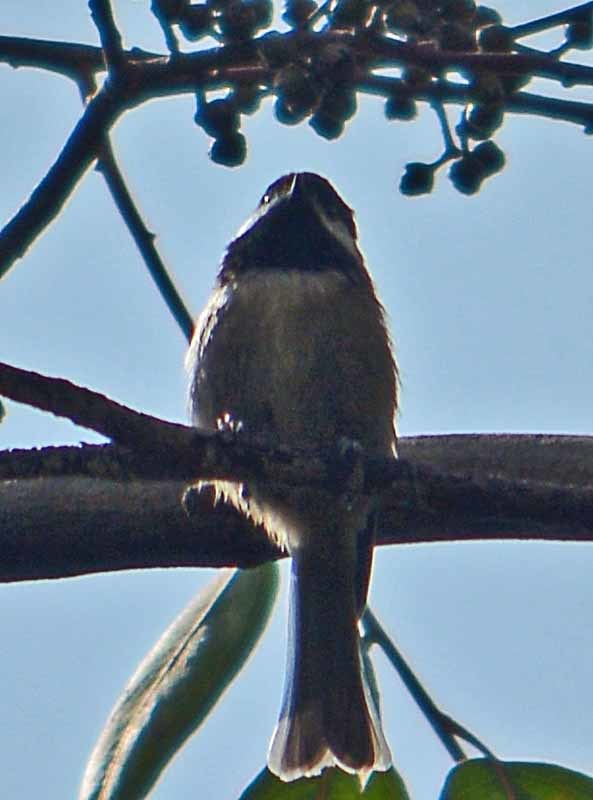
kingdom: Animalia
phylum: Chordata
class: Aves
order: Passeriformes
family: Paridae
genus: Poecile
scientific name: Poecile sclateri
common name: Mexican chickadee
